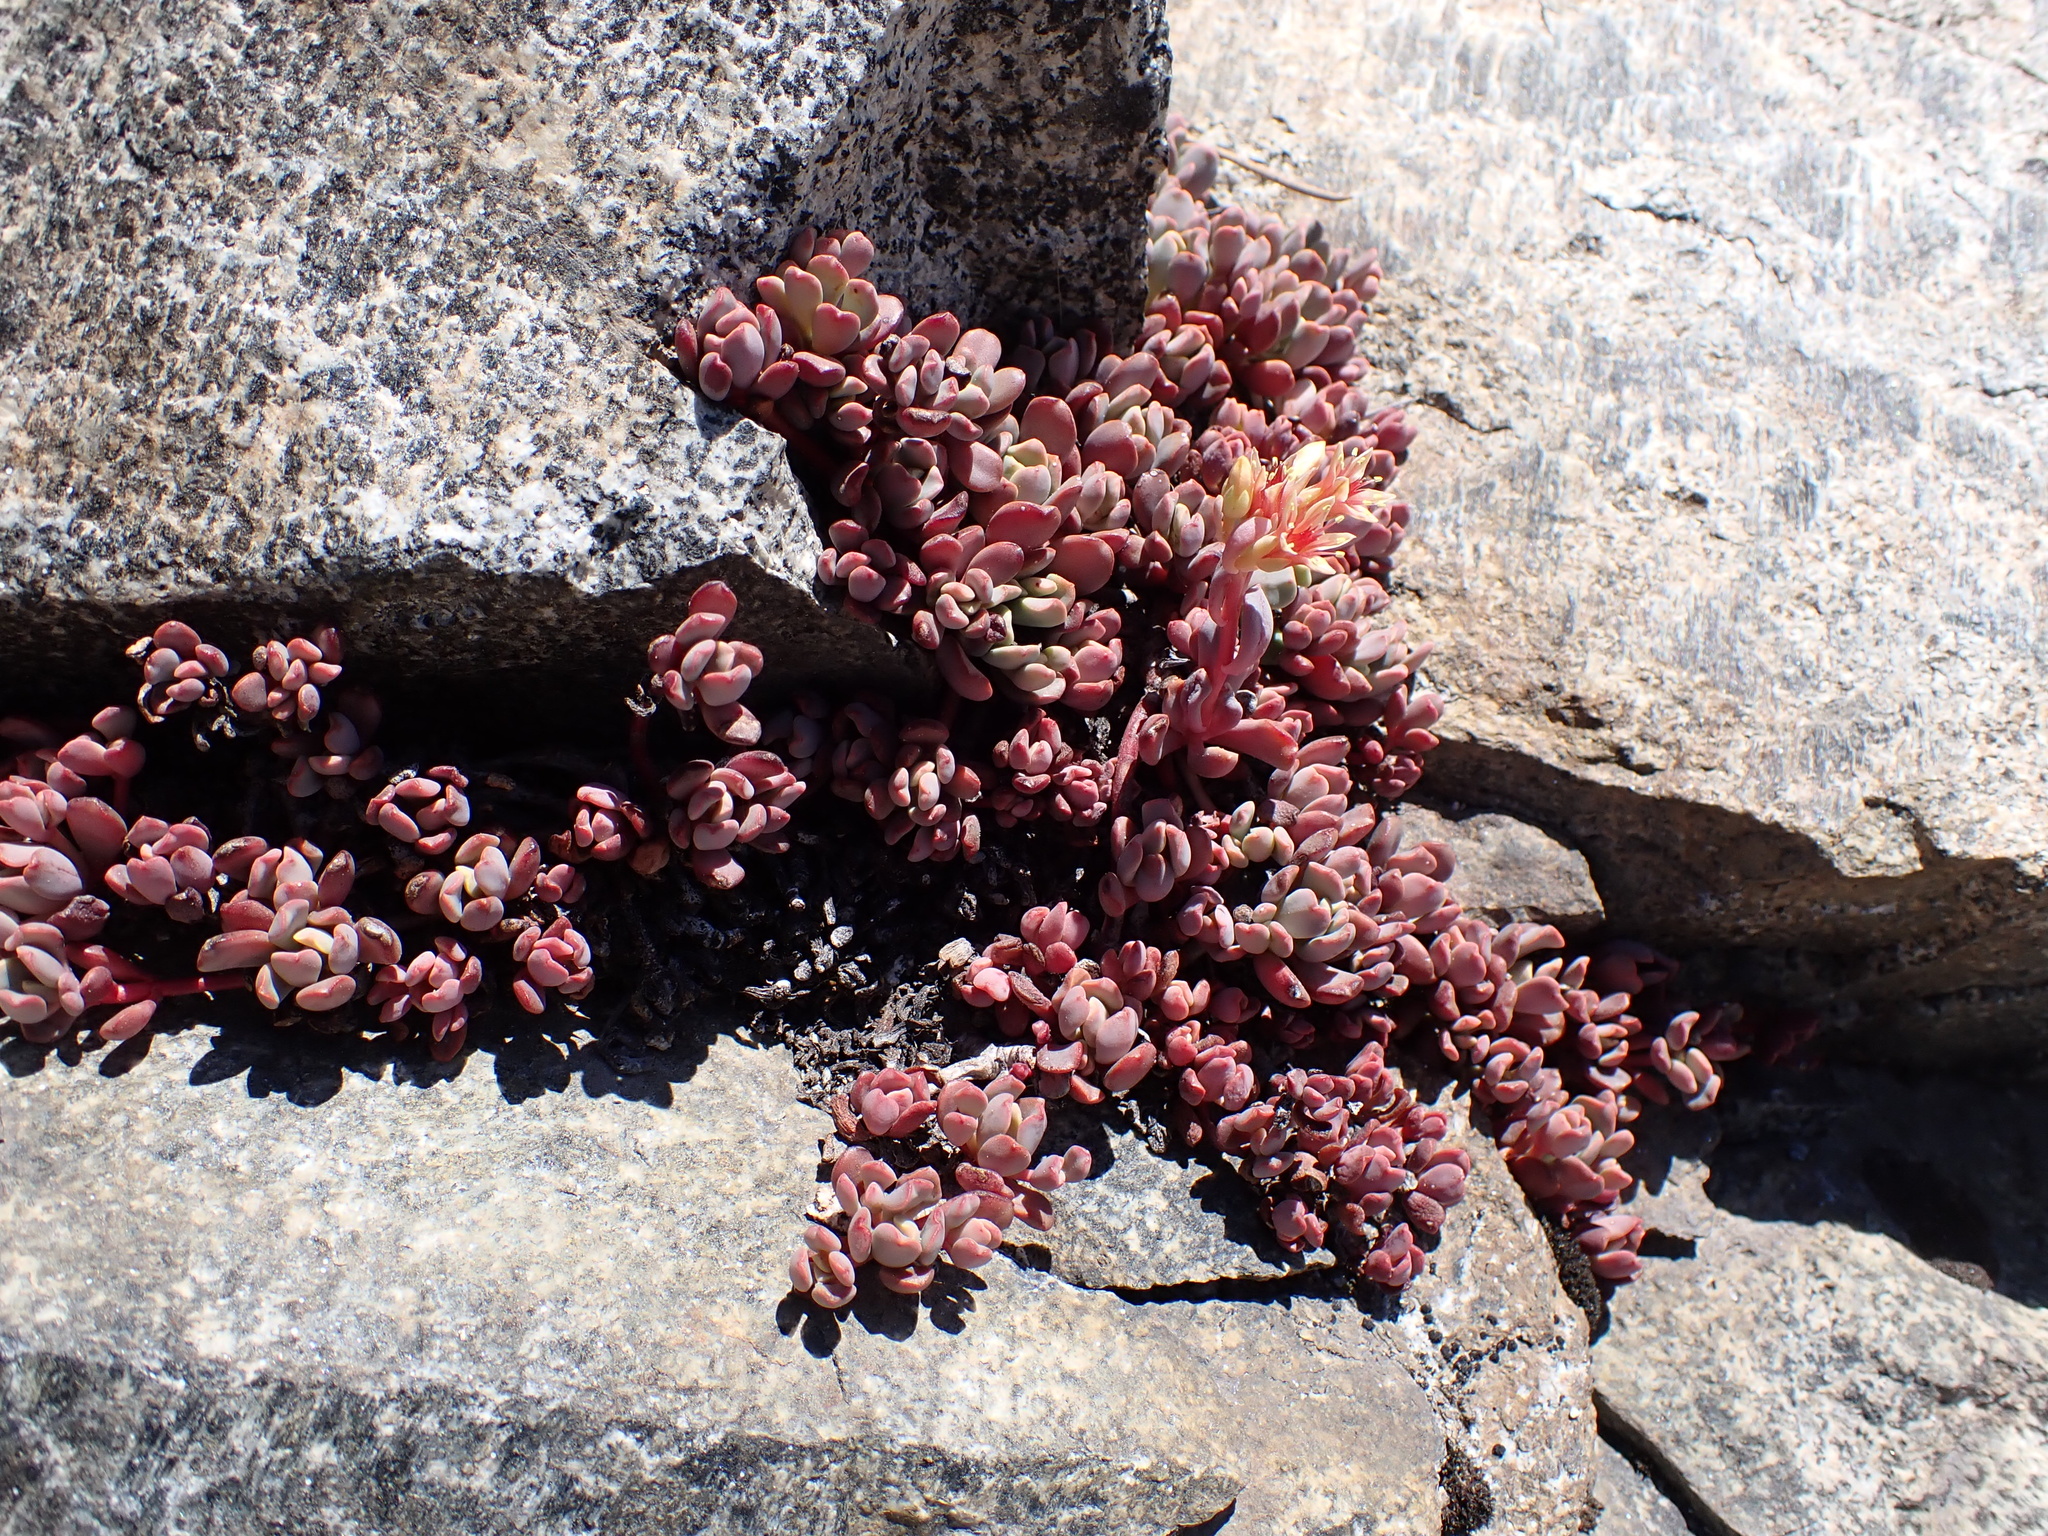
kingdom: Plantae
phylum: Tracheophyta
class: Magnoliopsida
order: Saxifragales
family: Crassulaceae
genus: Sedum
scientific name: Sedum obtusatum
